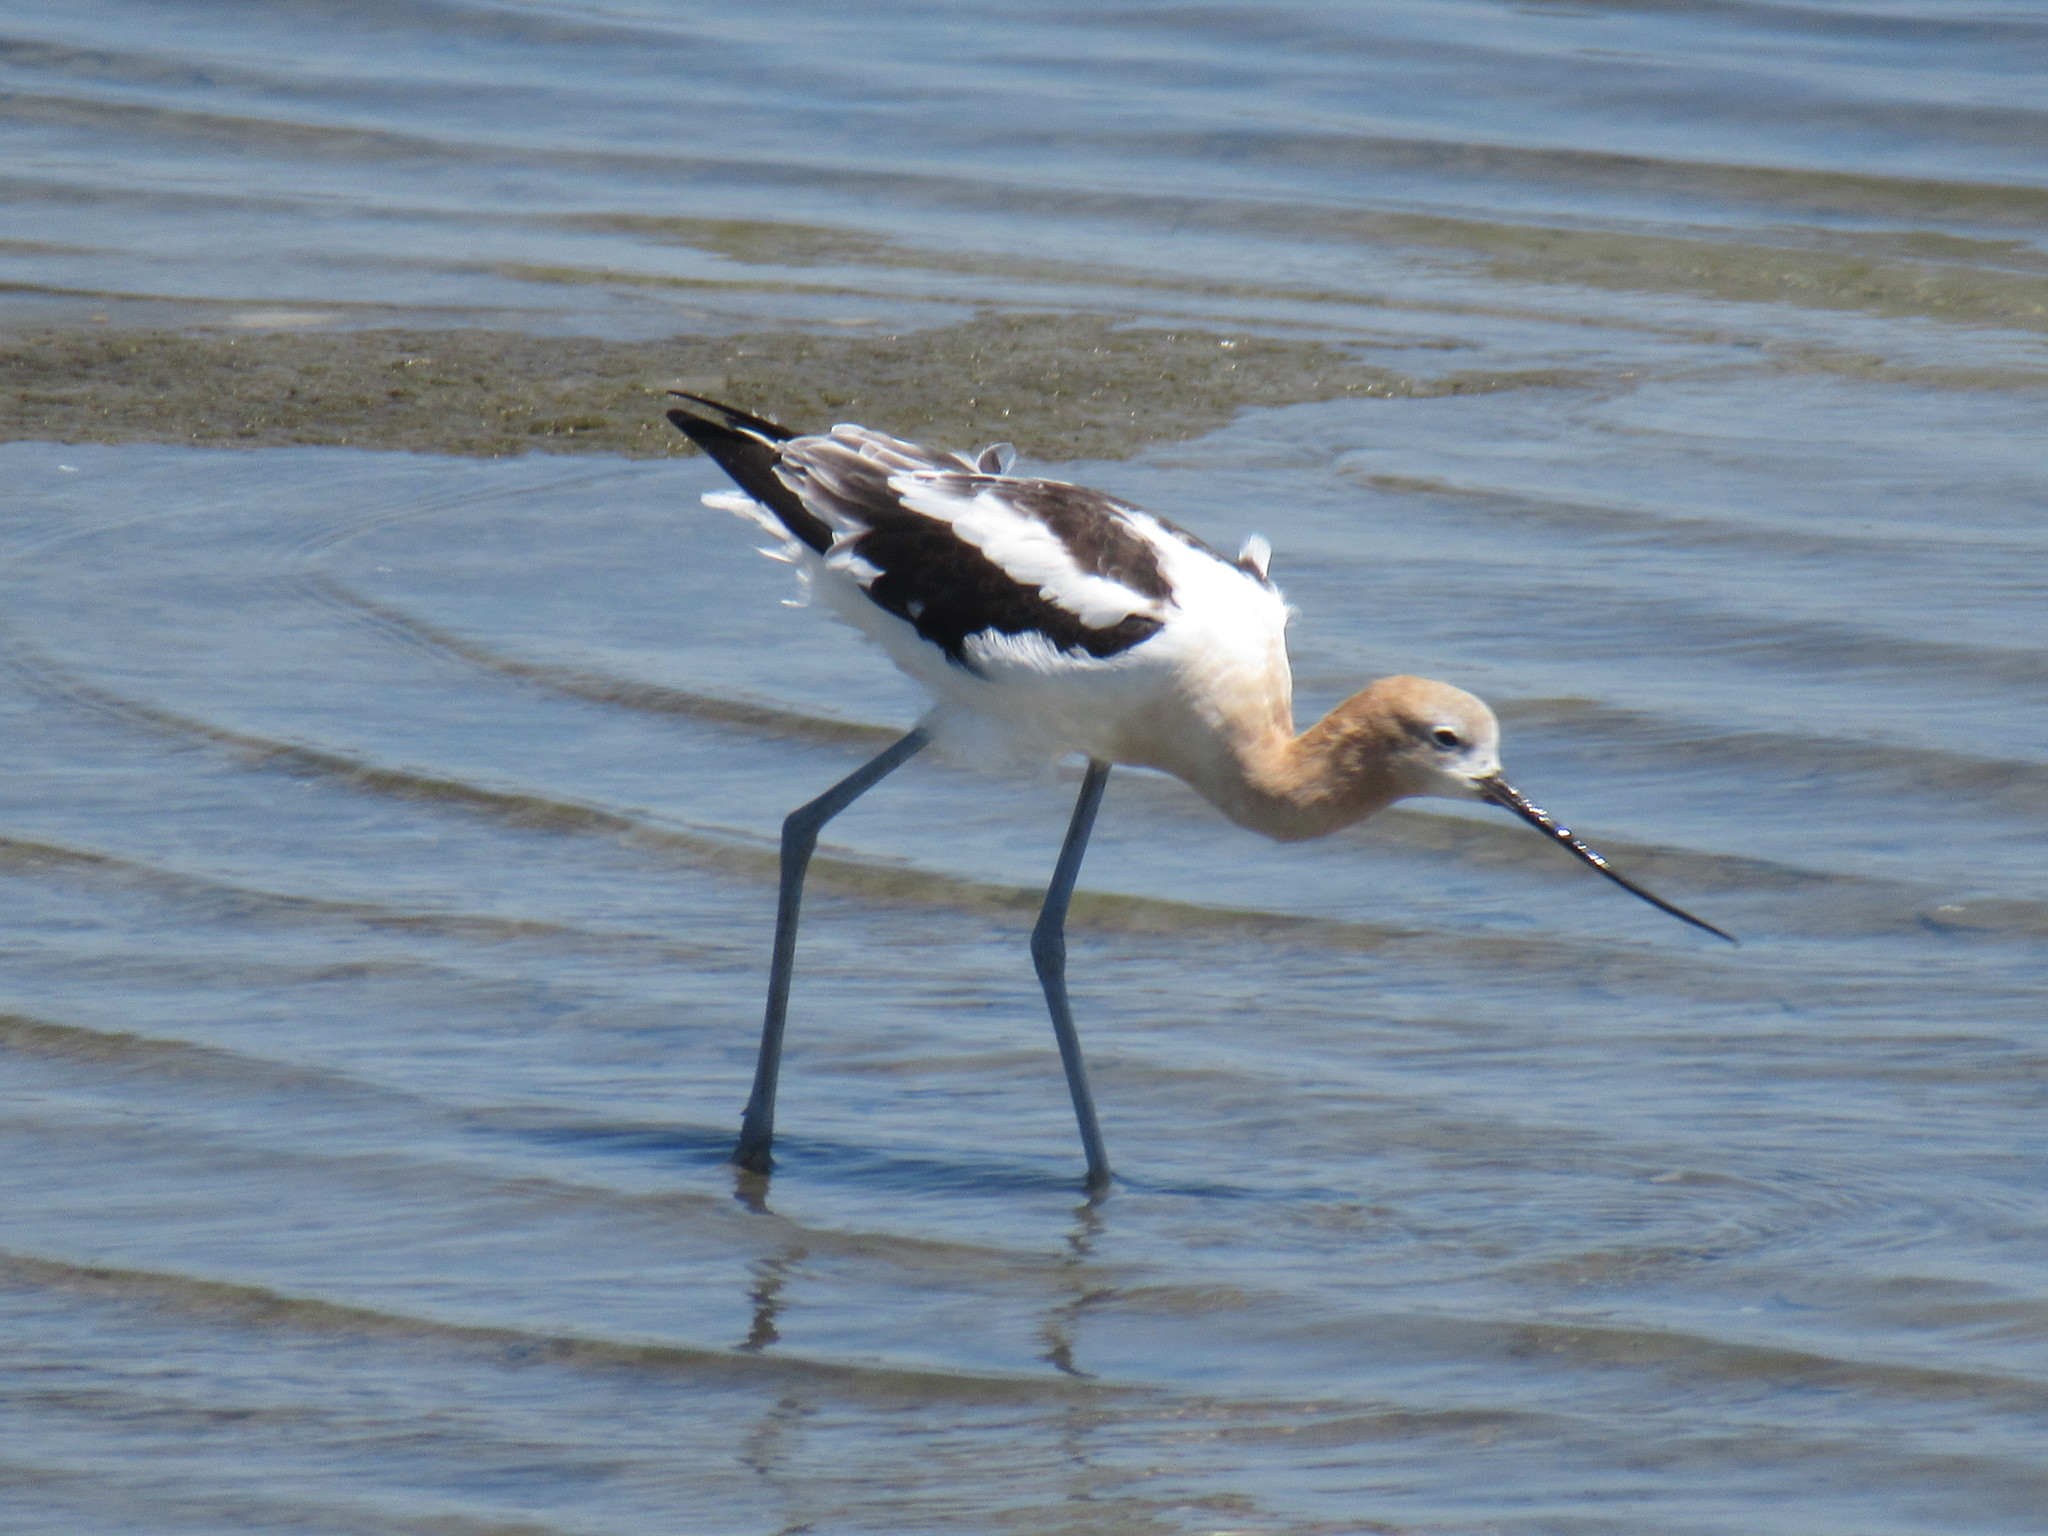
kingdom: Animalia
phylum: Chordata
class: Aves
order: Charadriiformes
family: Recurvirostridae
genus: Recurvirostra
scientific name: Recurvirostra americana
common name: American avocet
